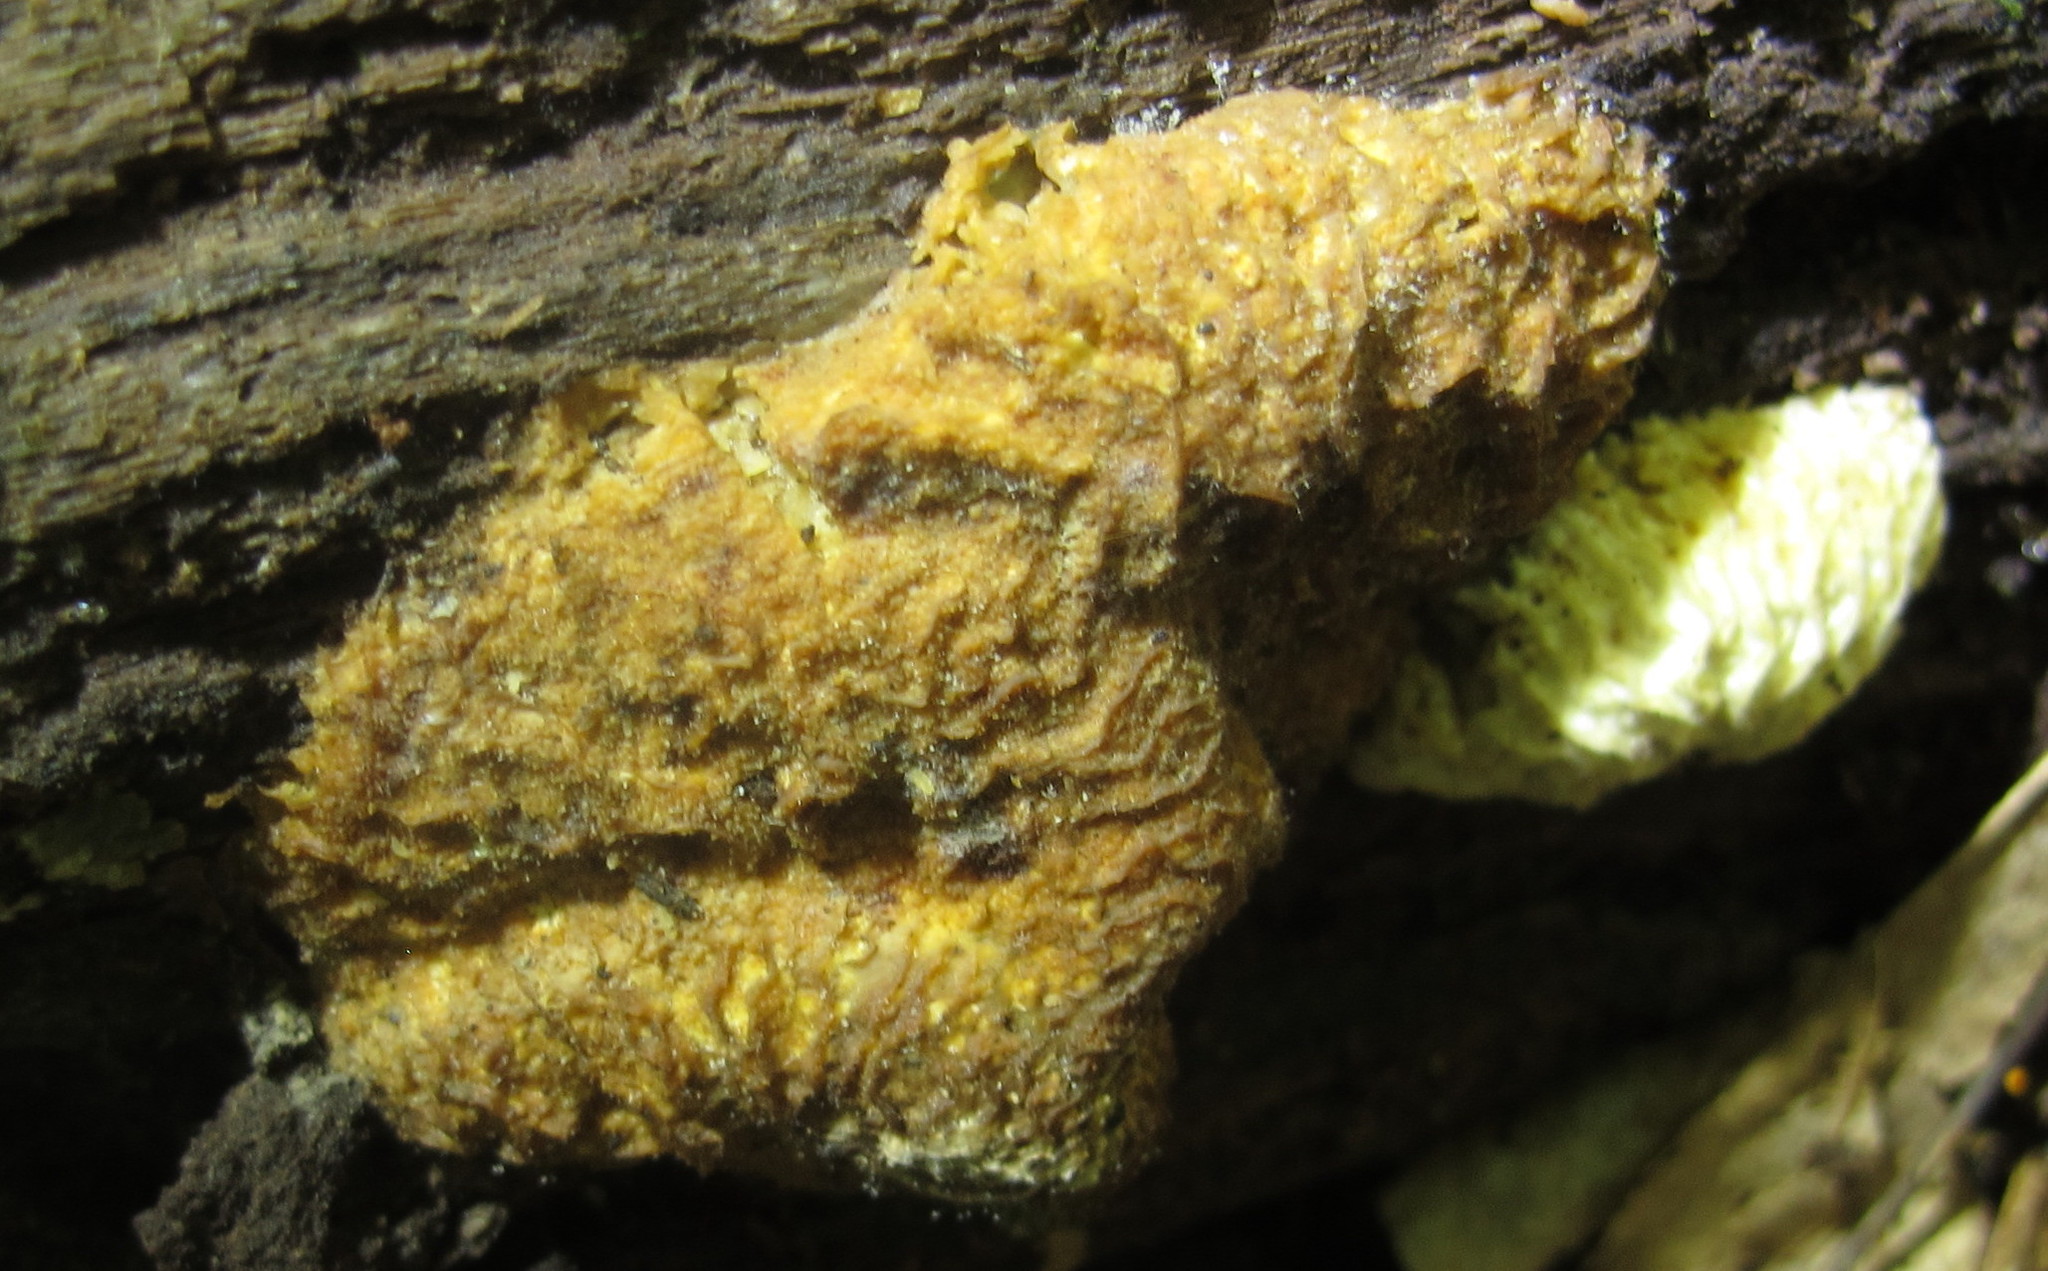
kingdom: Fungi
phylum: Ascomycota
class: Sordariomycetes
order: Hypocreales
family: Bionectriaceae
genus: Nectriopsis
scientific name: Nectriopsis tremellicola
